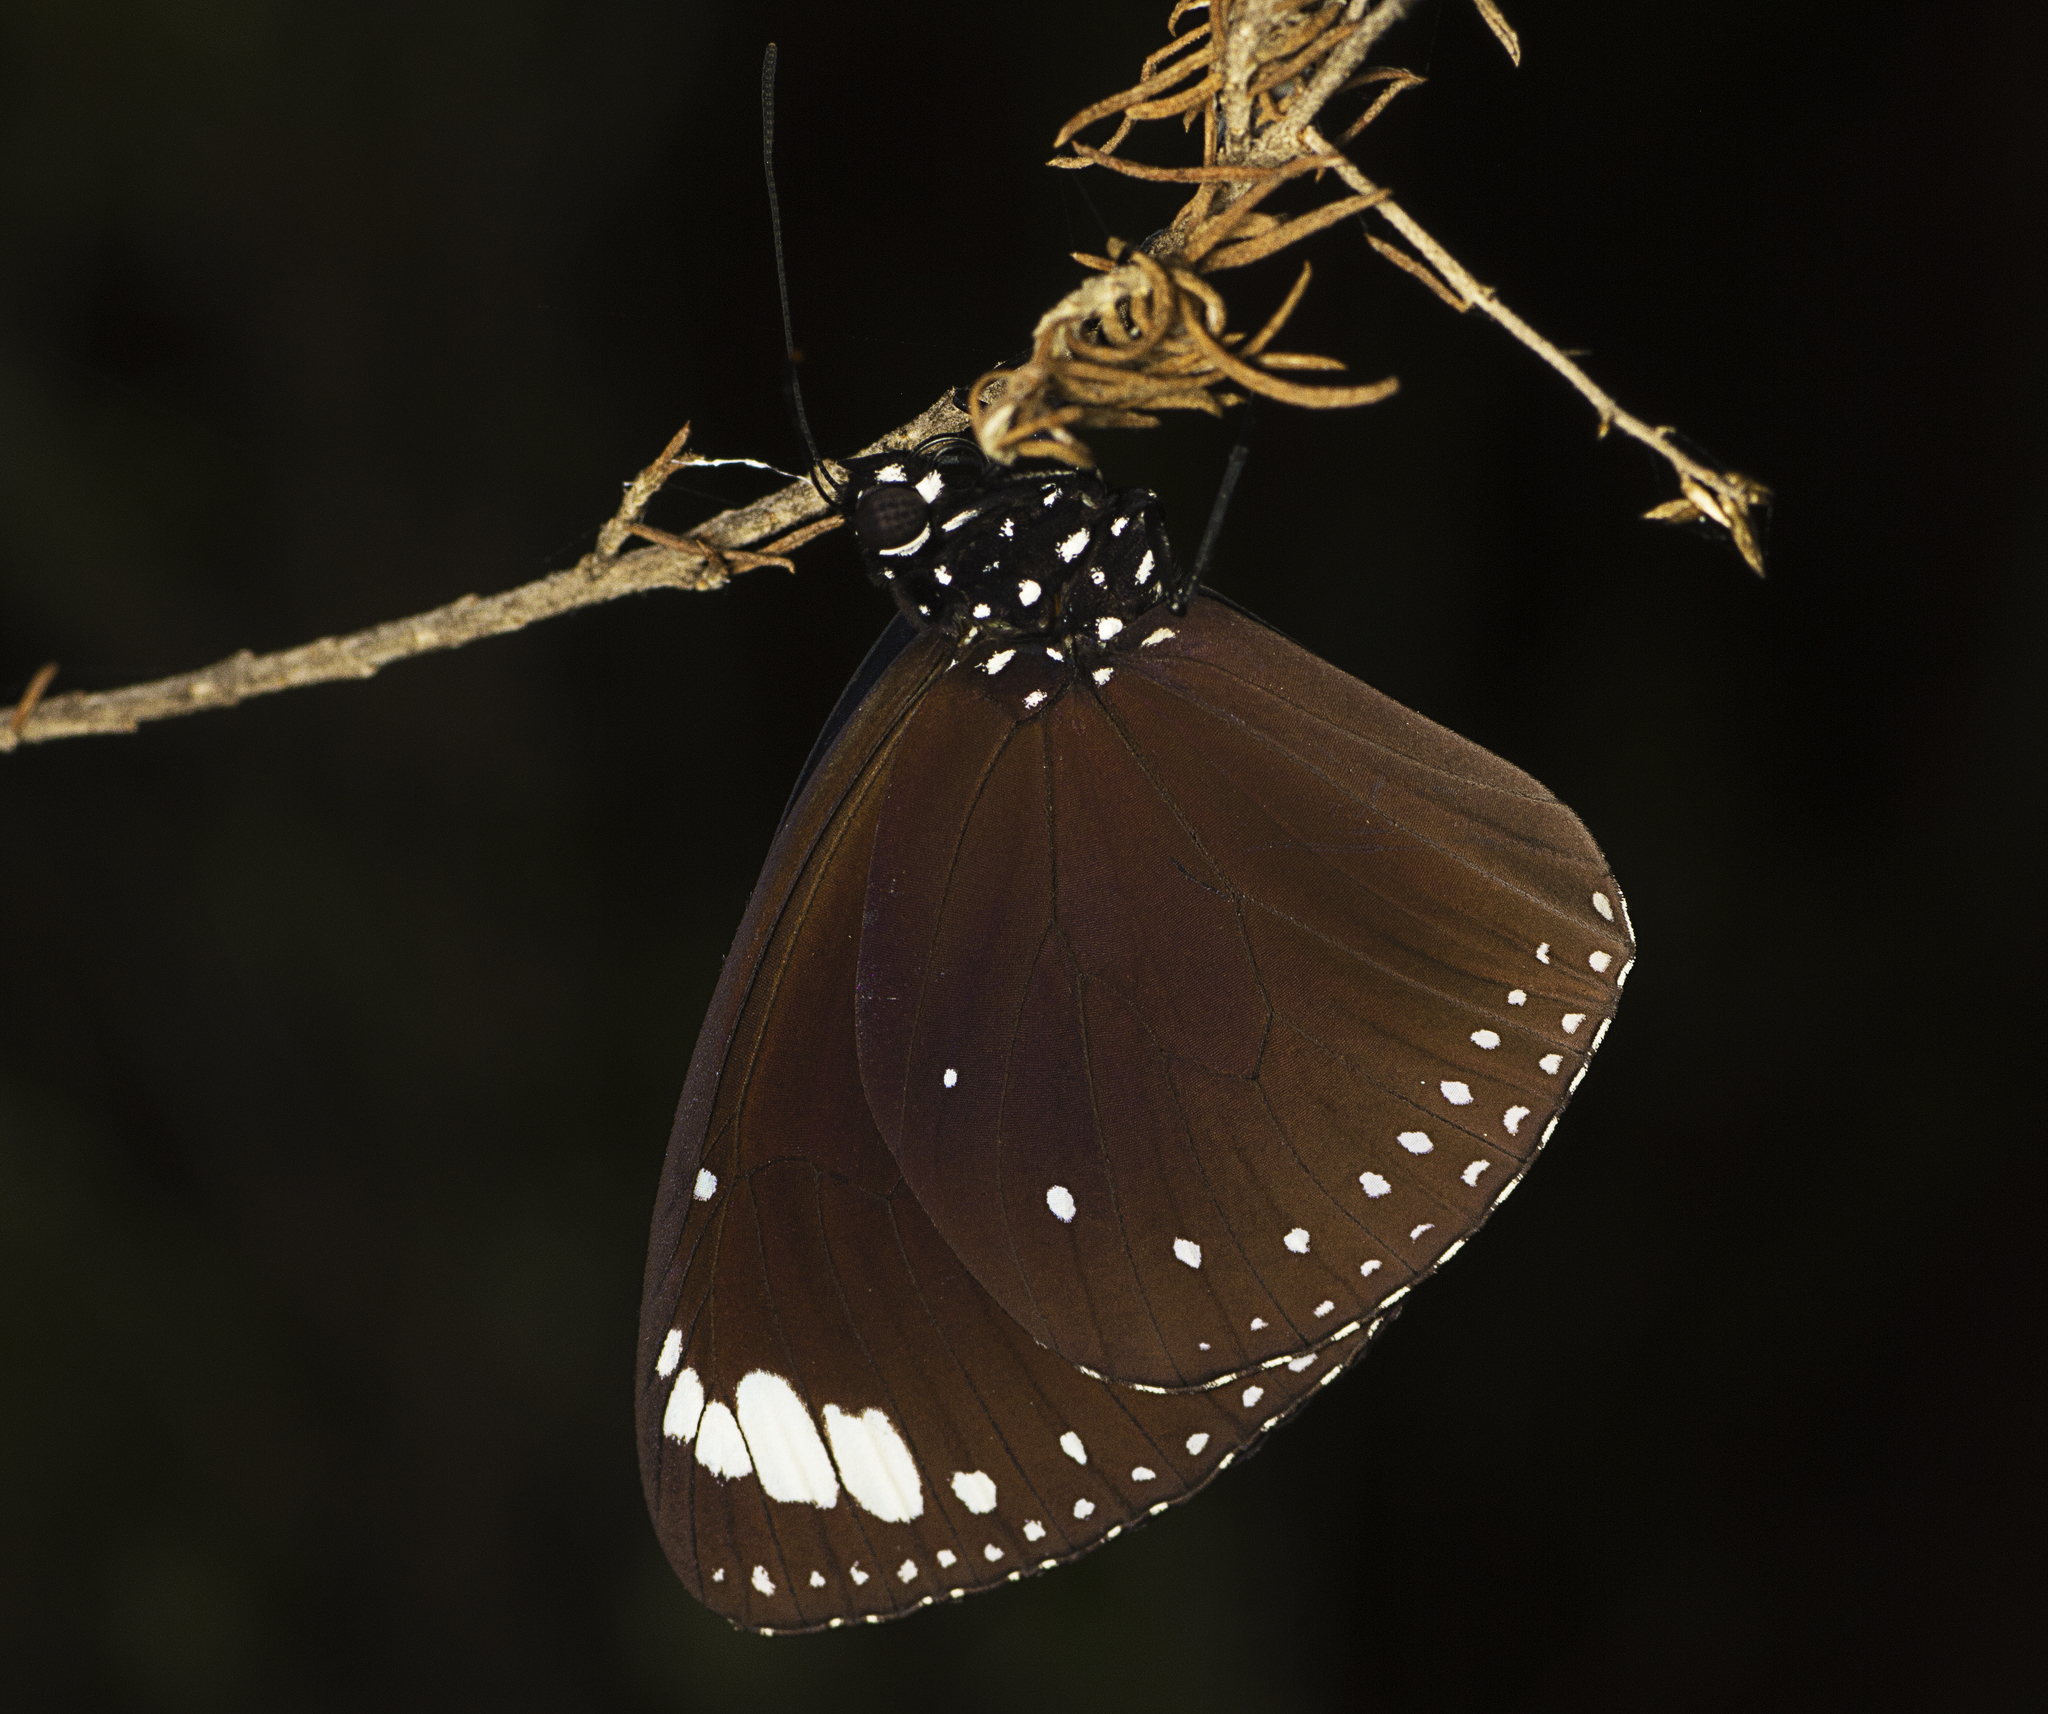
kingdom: Animalia
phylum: Arthropoda
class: Insecta
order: Lepidoptera
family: Nymphalidae
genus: Euploea
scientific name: Euploea tulliolus
